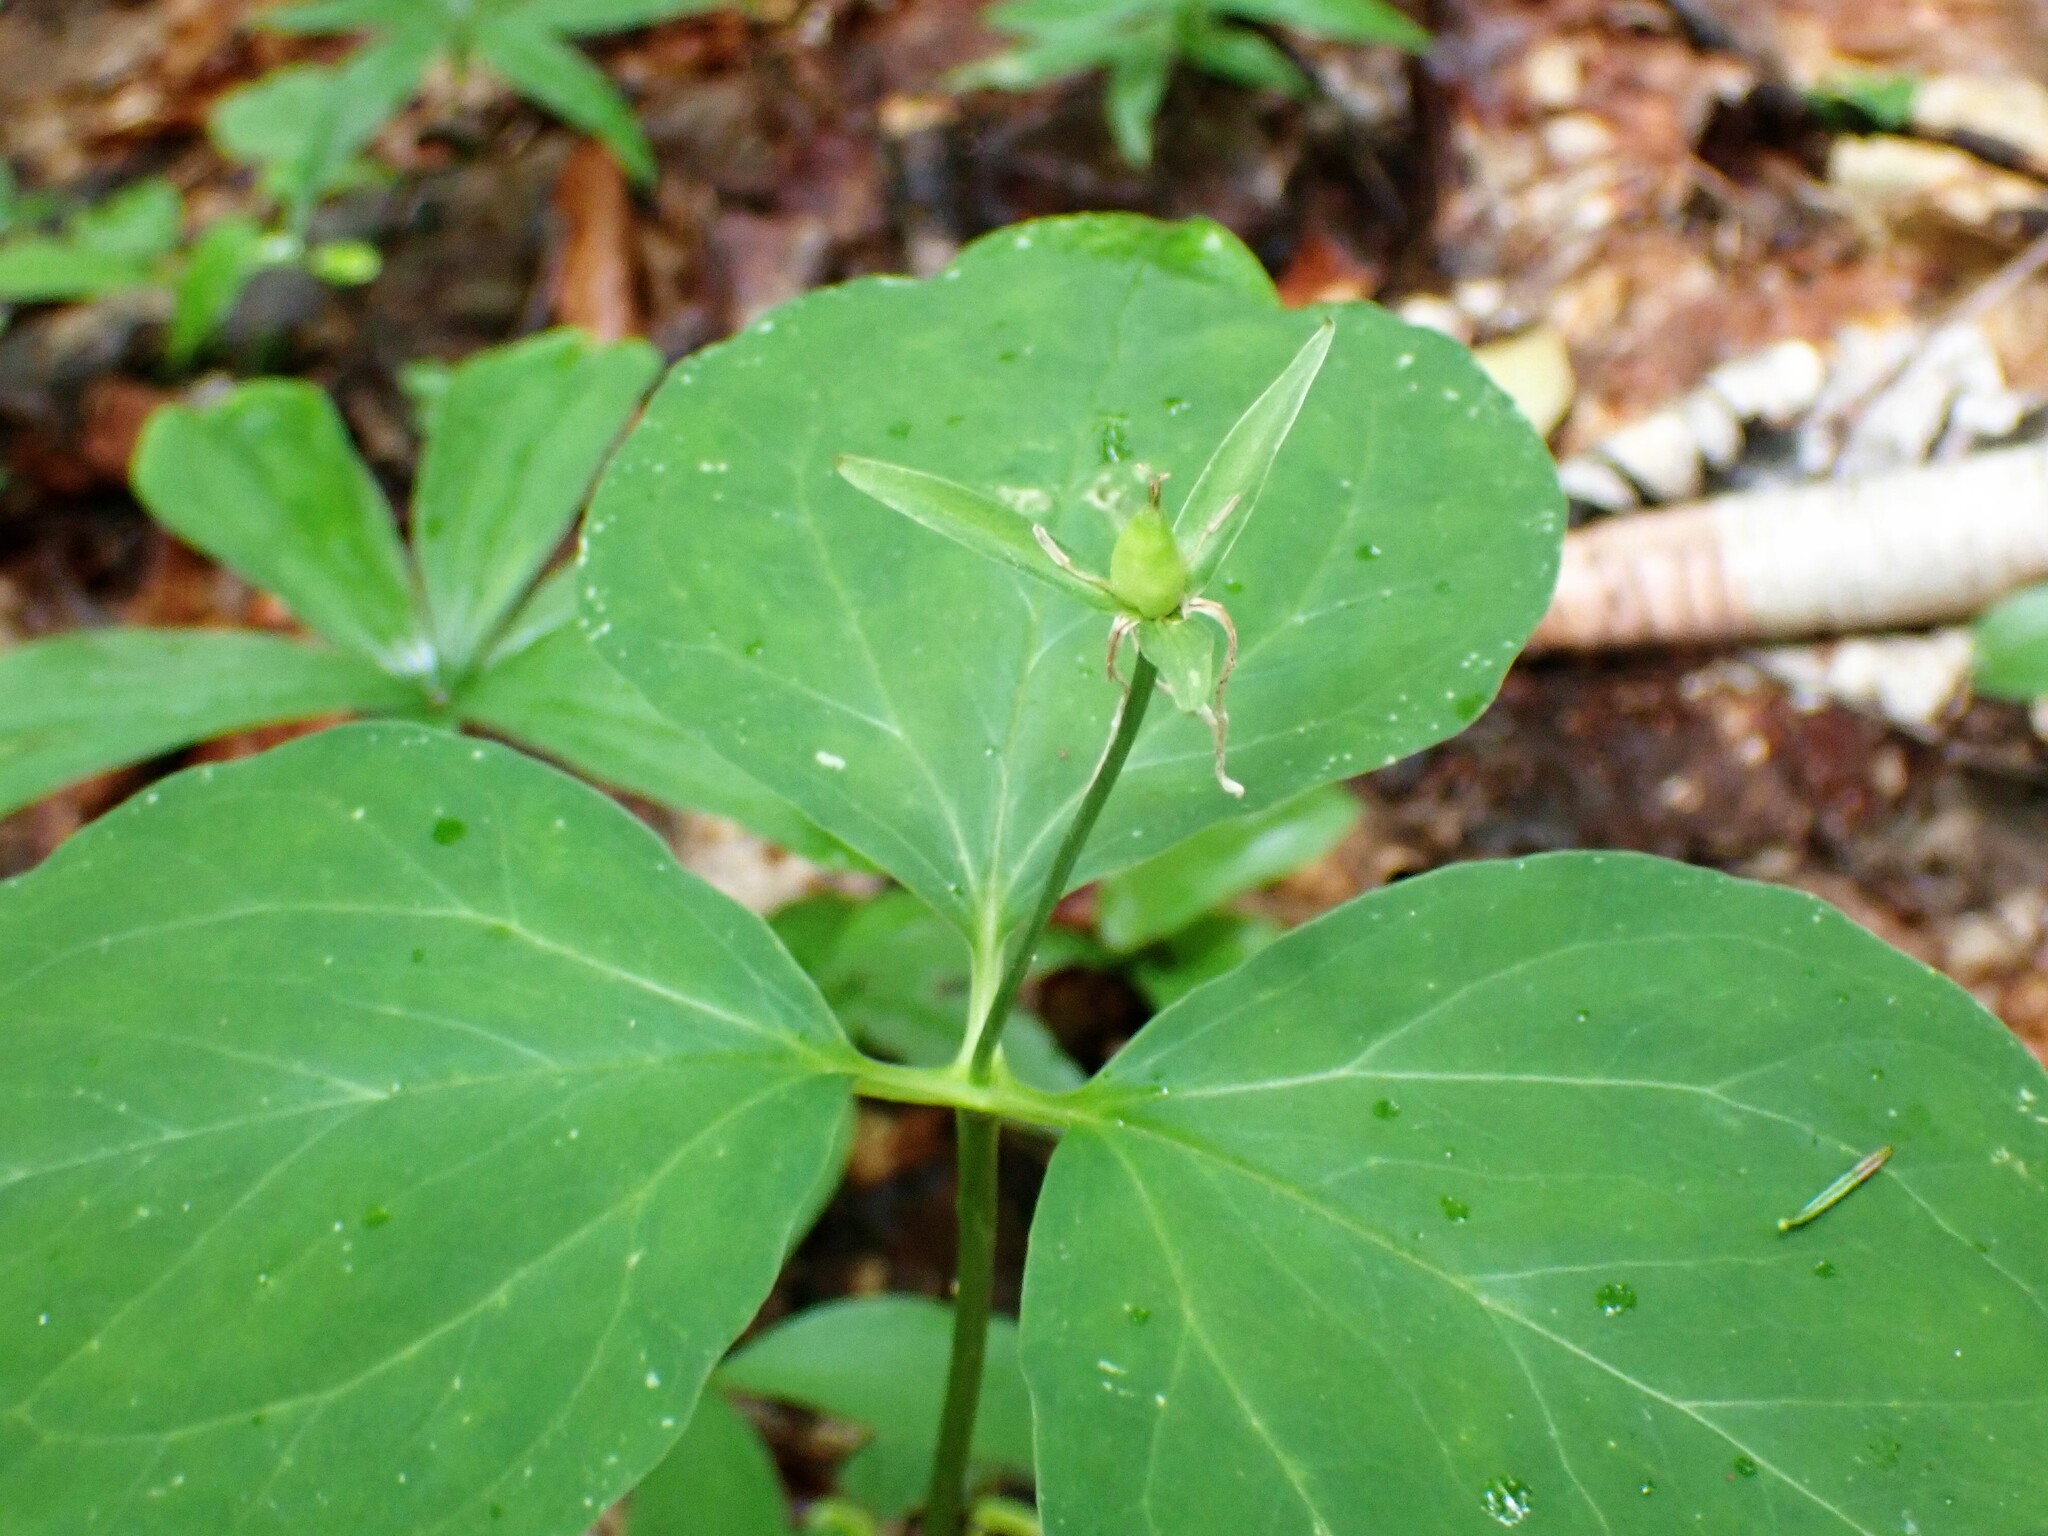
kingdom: Plantae
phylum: Tracheophyta
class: Liliopsida
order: Liliales
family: Melanthiaceae
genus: Trillium
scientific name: Trillium undulatum
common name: Paint trillium
